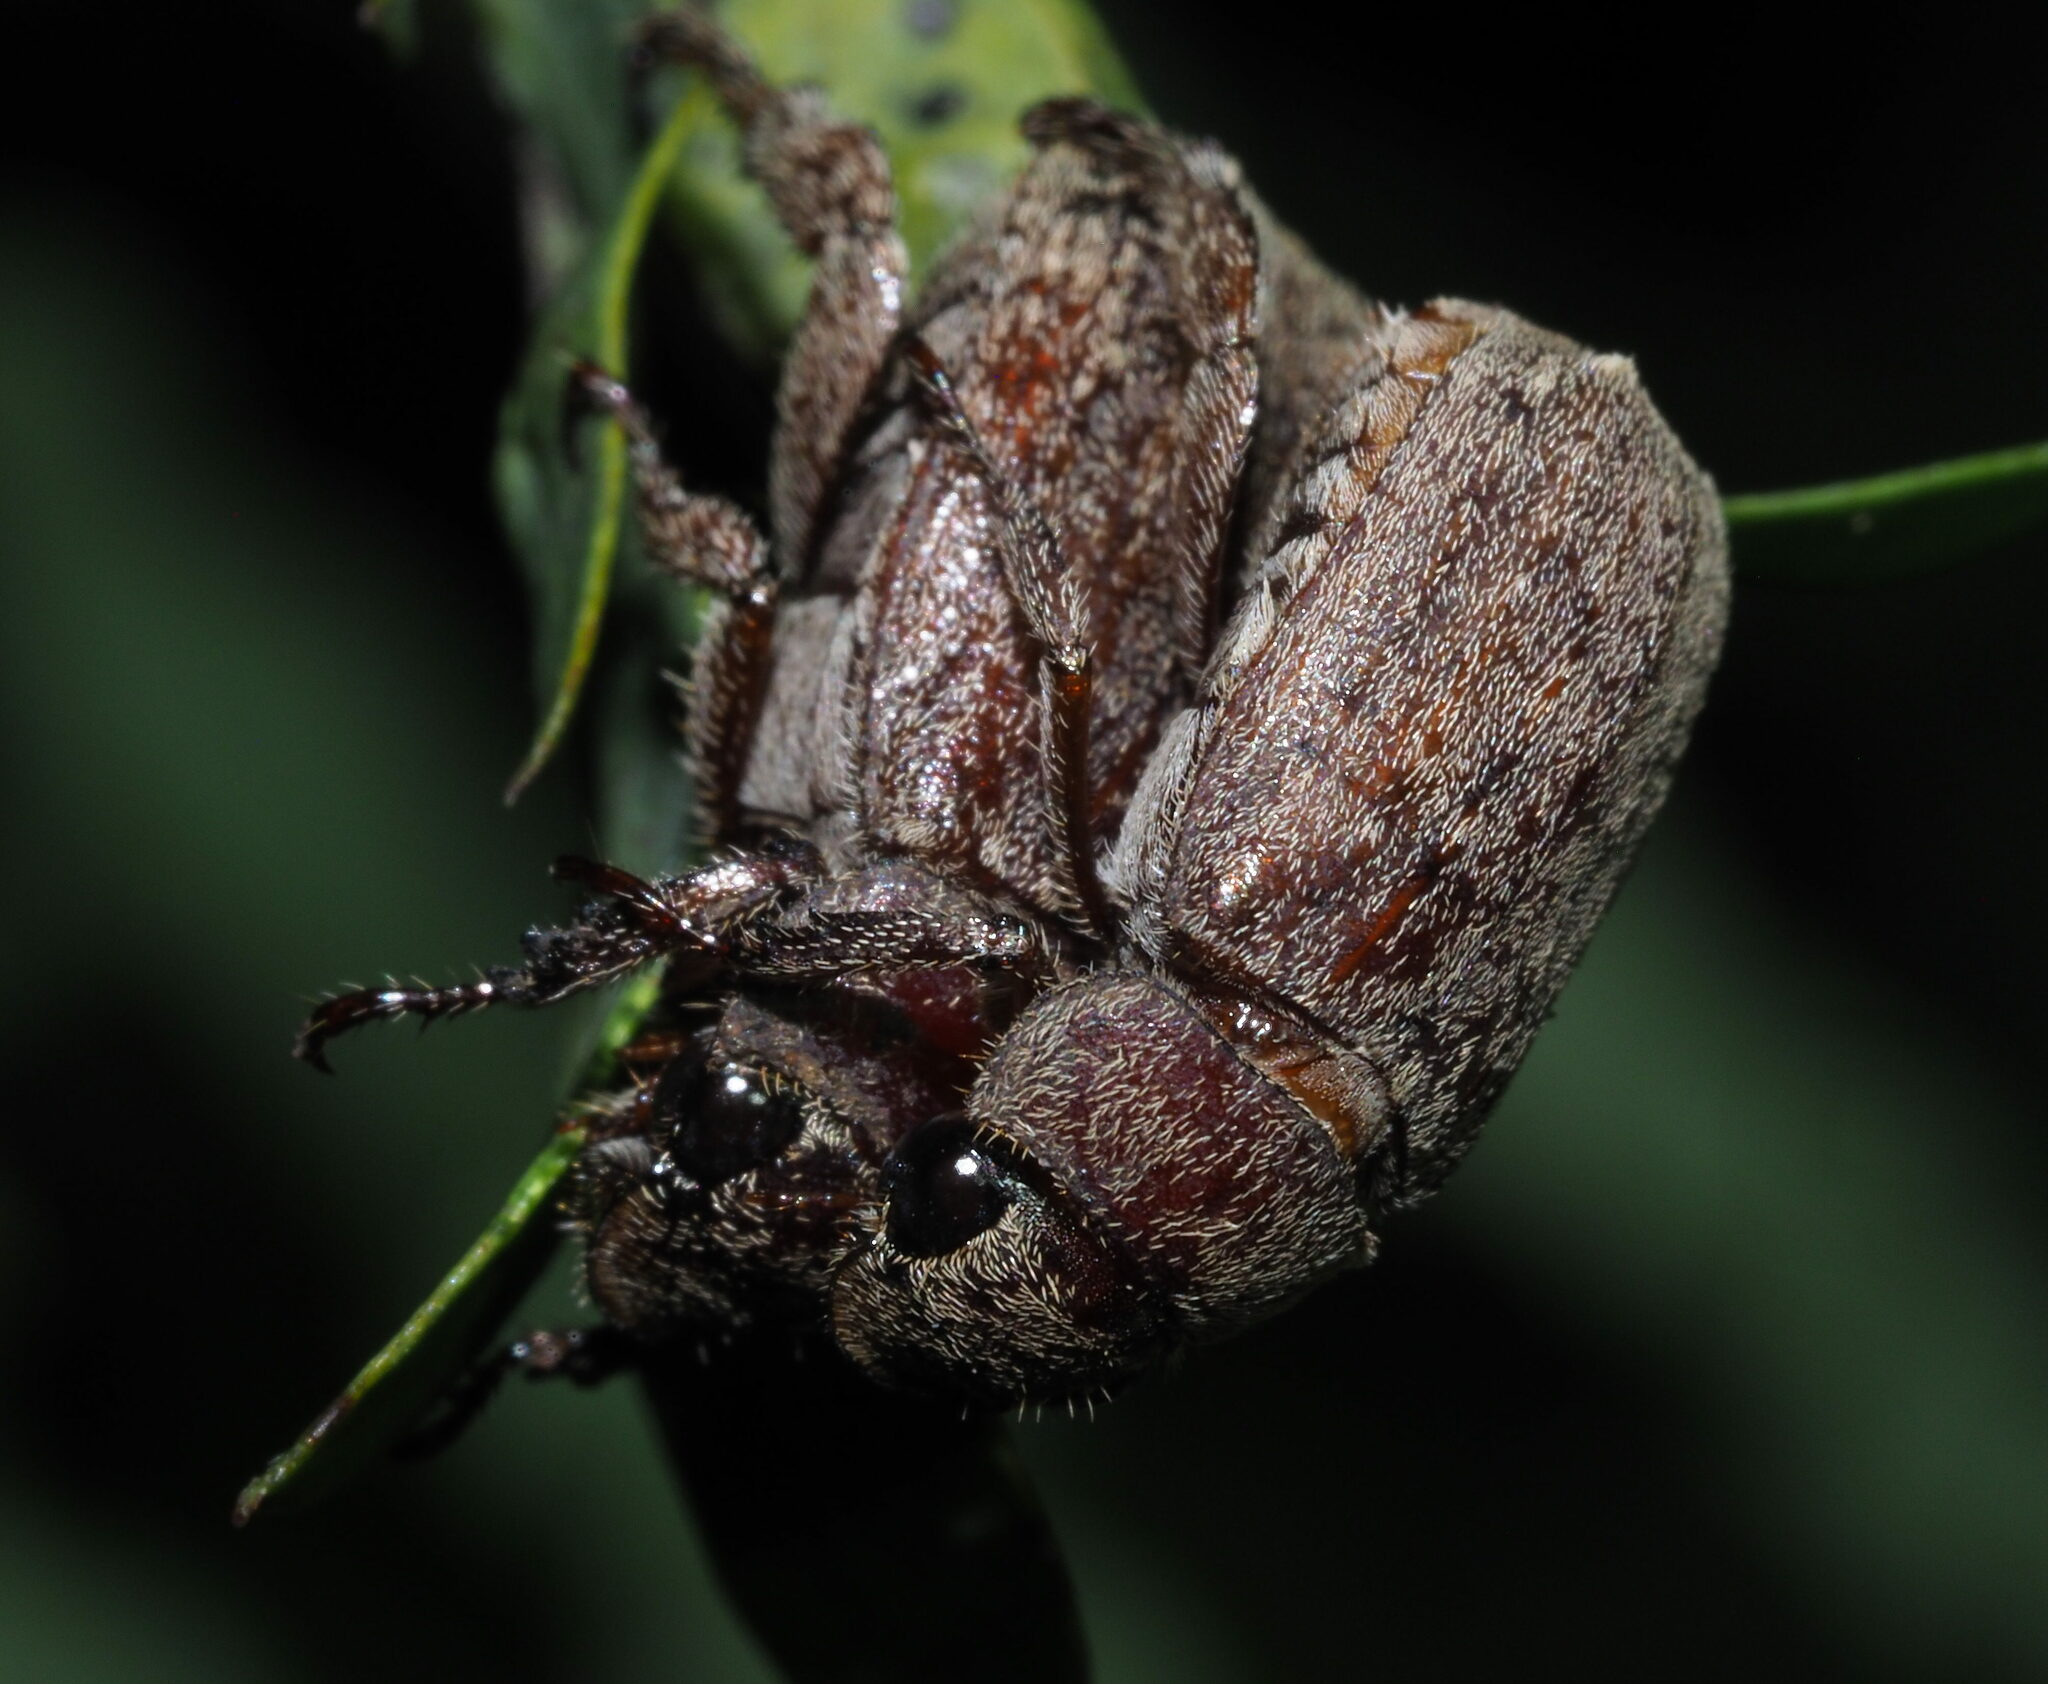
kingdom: Animalia
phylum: Arthropoda
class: Insecta
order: Coleoptera
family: Scarabaeidae
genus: Adoretus
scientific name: Adoretus sinicus
